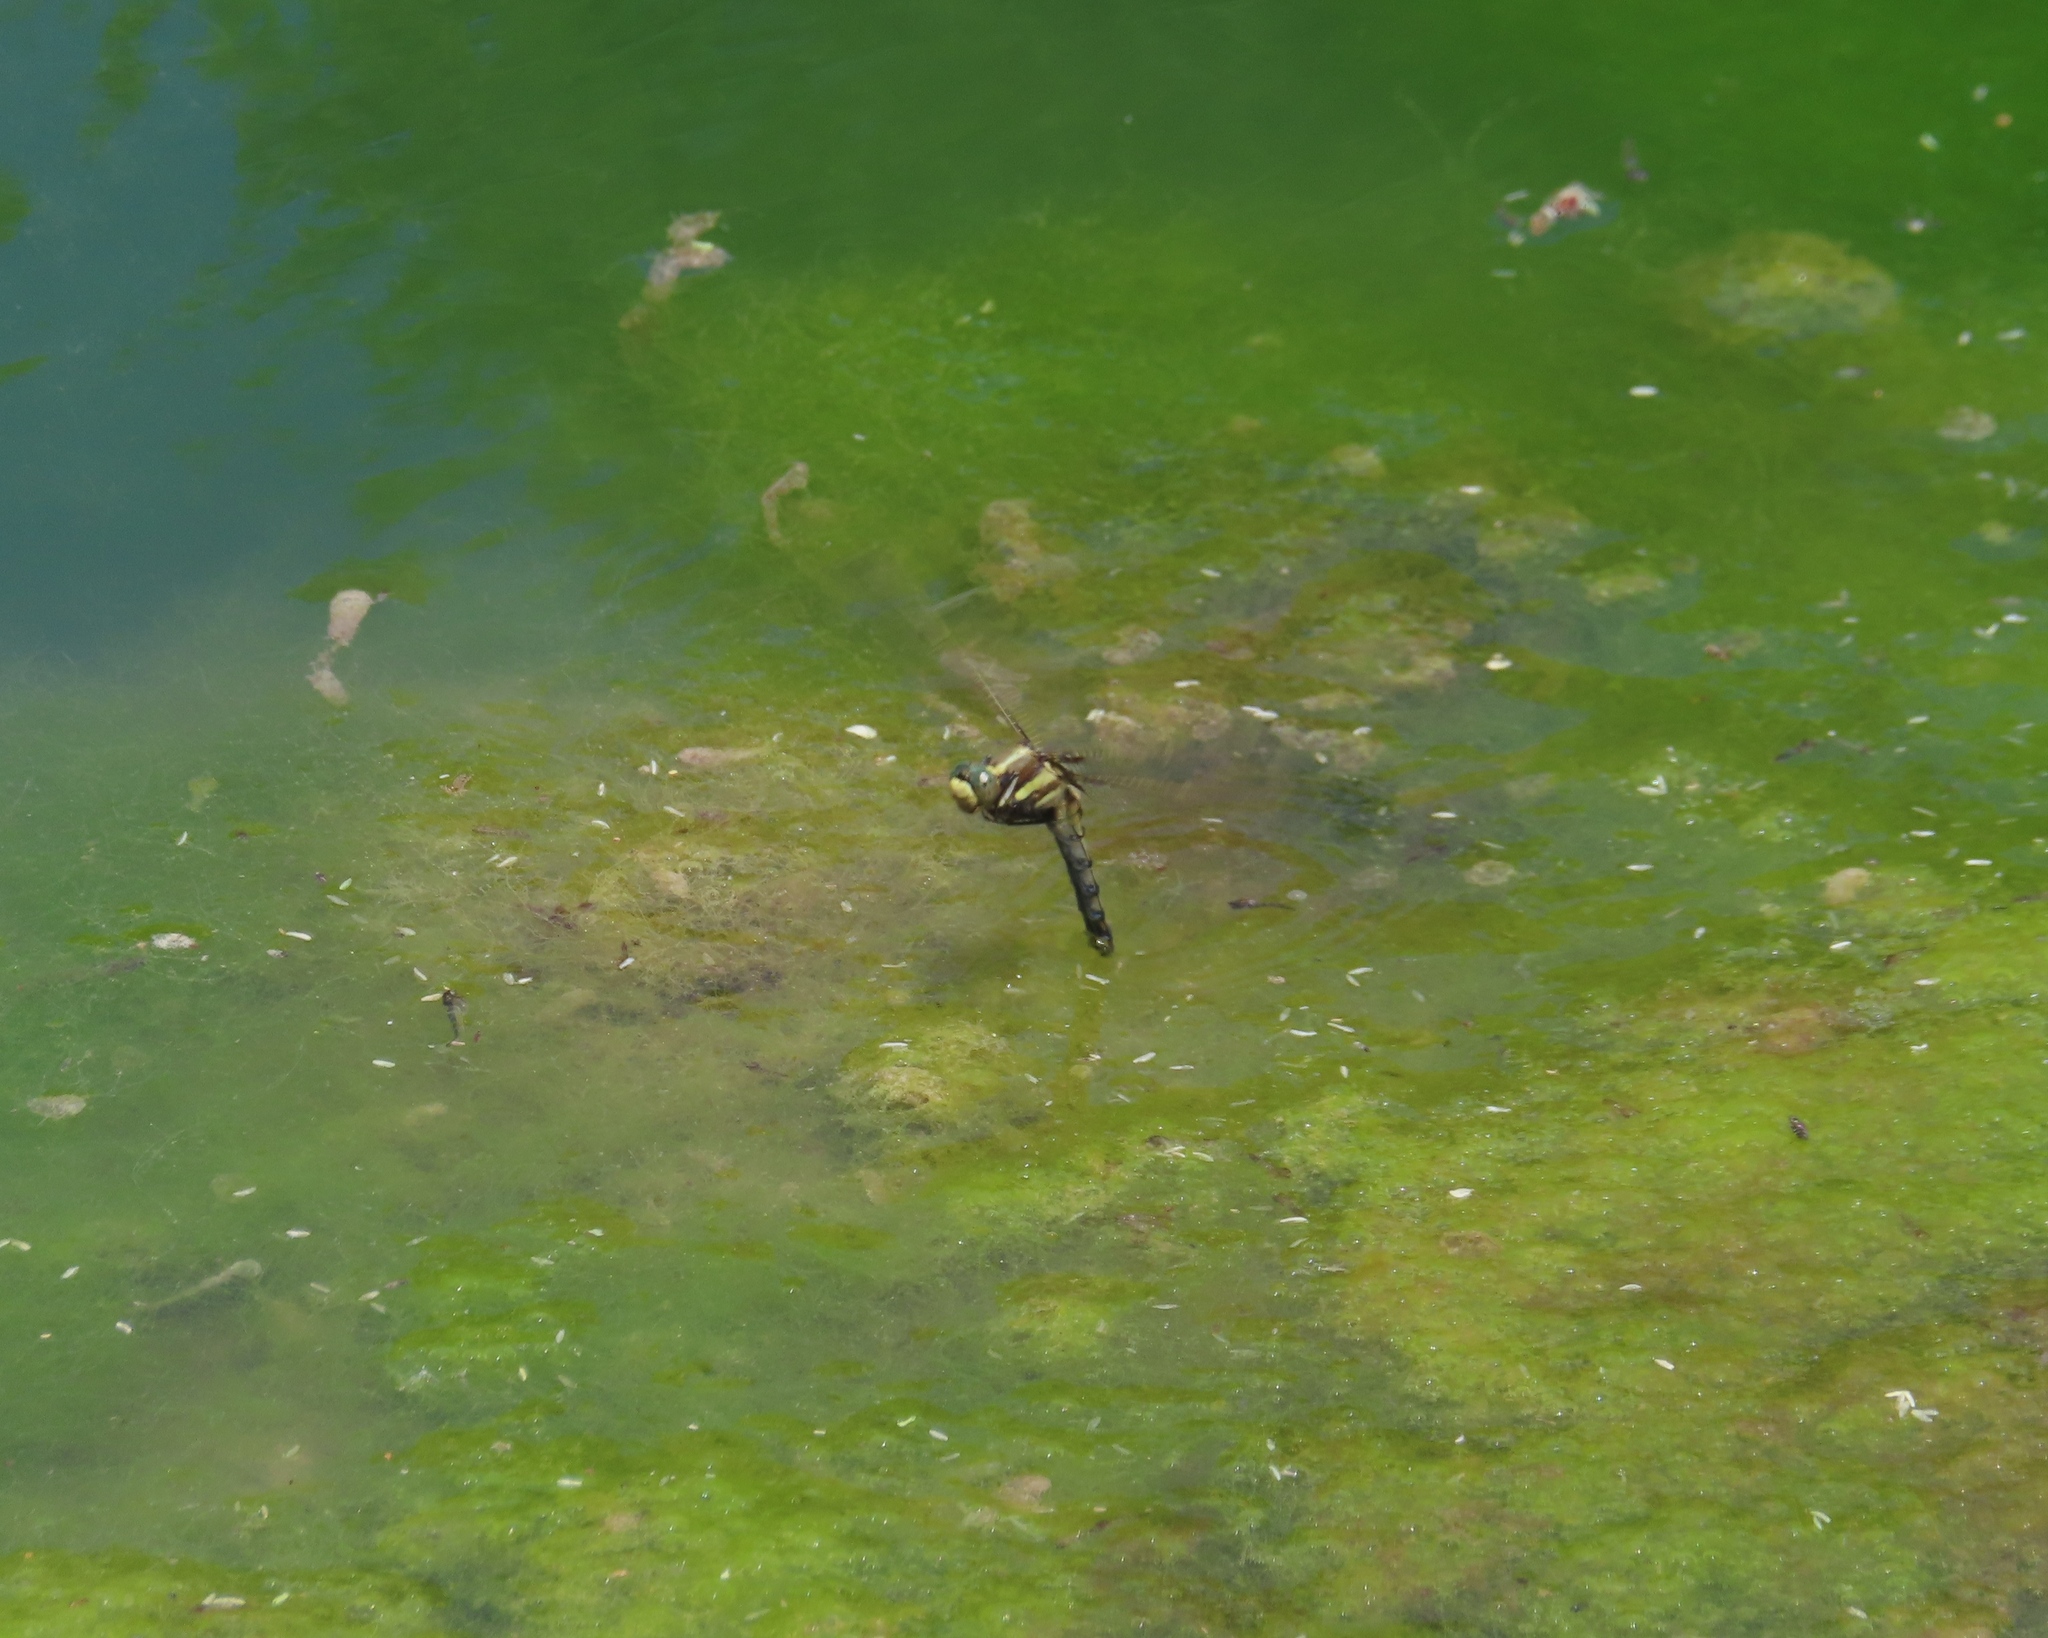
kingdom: Animalia
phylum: Arthropoda
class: Insecta
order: Odonata
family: Libellulidae
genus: Orthetrum
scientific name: Orthetrum albistylum
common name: White-tailed skimmer
